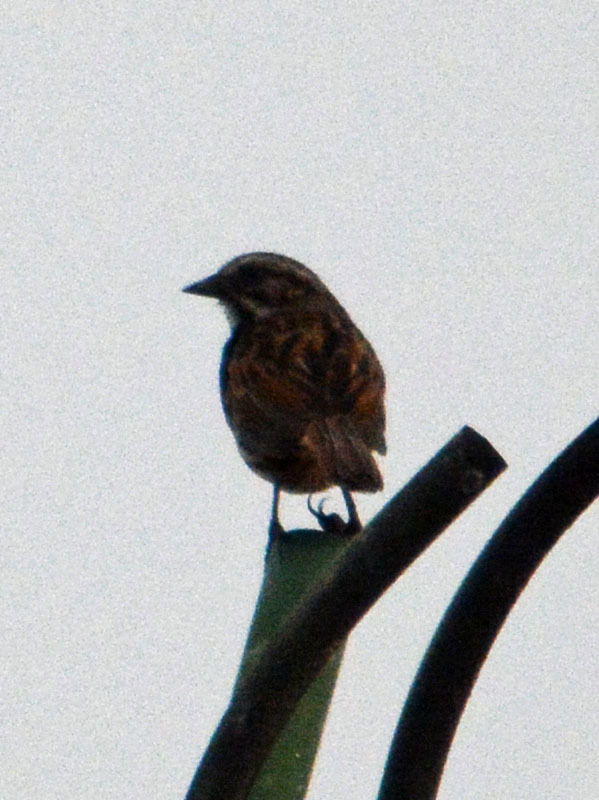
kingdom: Animalia
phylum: Chordata
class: Aves
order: Passeriformes
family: Passerellidae
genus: Melospiza
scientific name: Melospiza melodia
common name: Song sparrow
